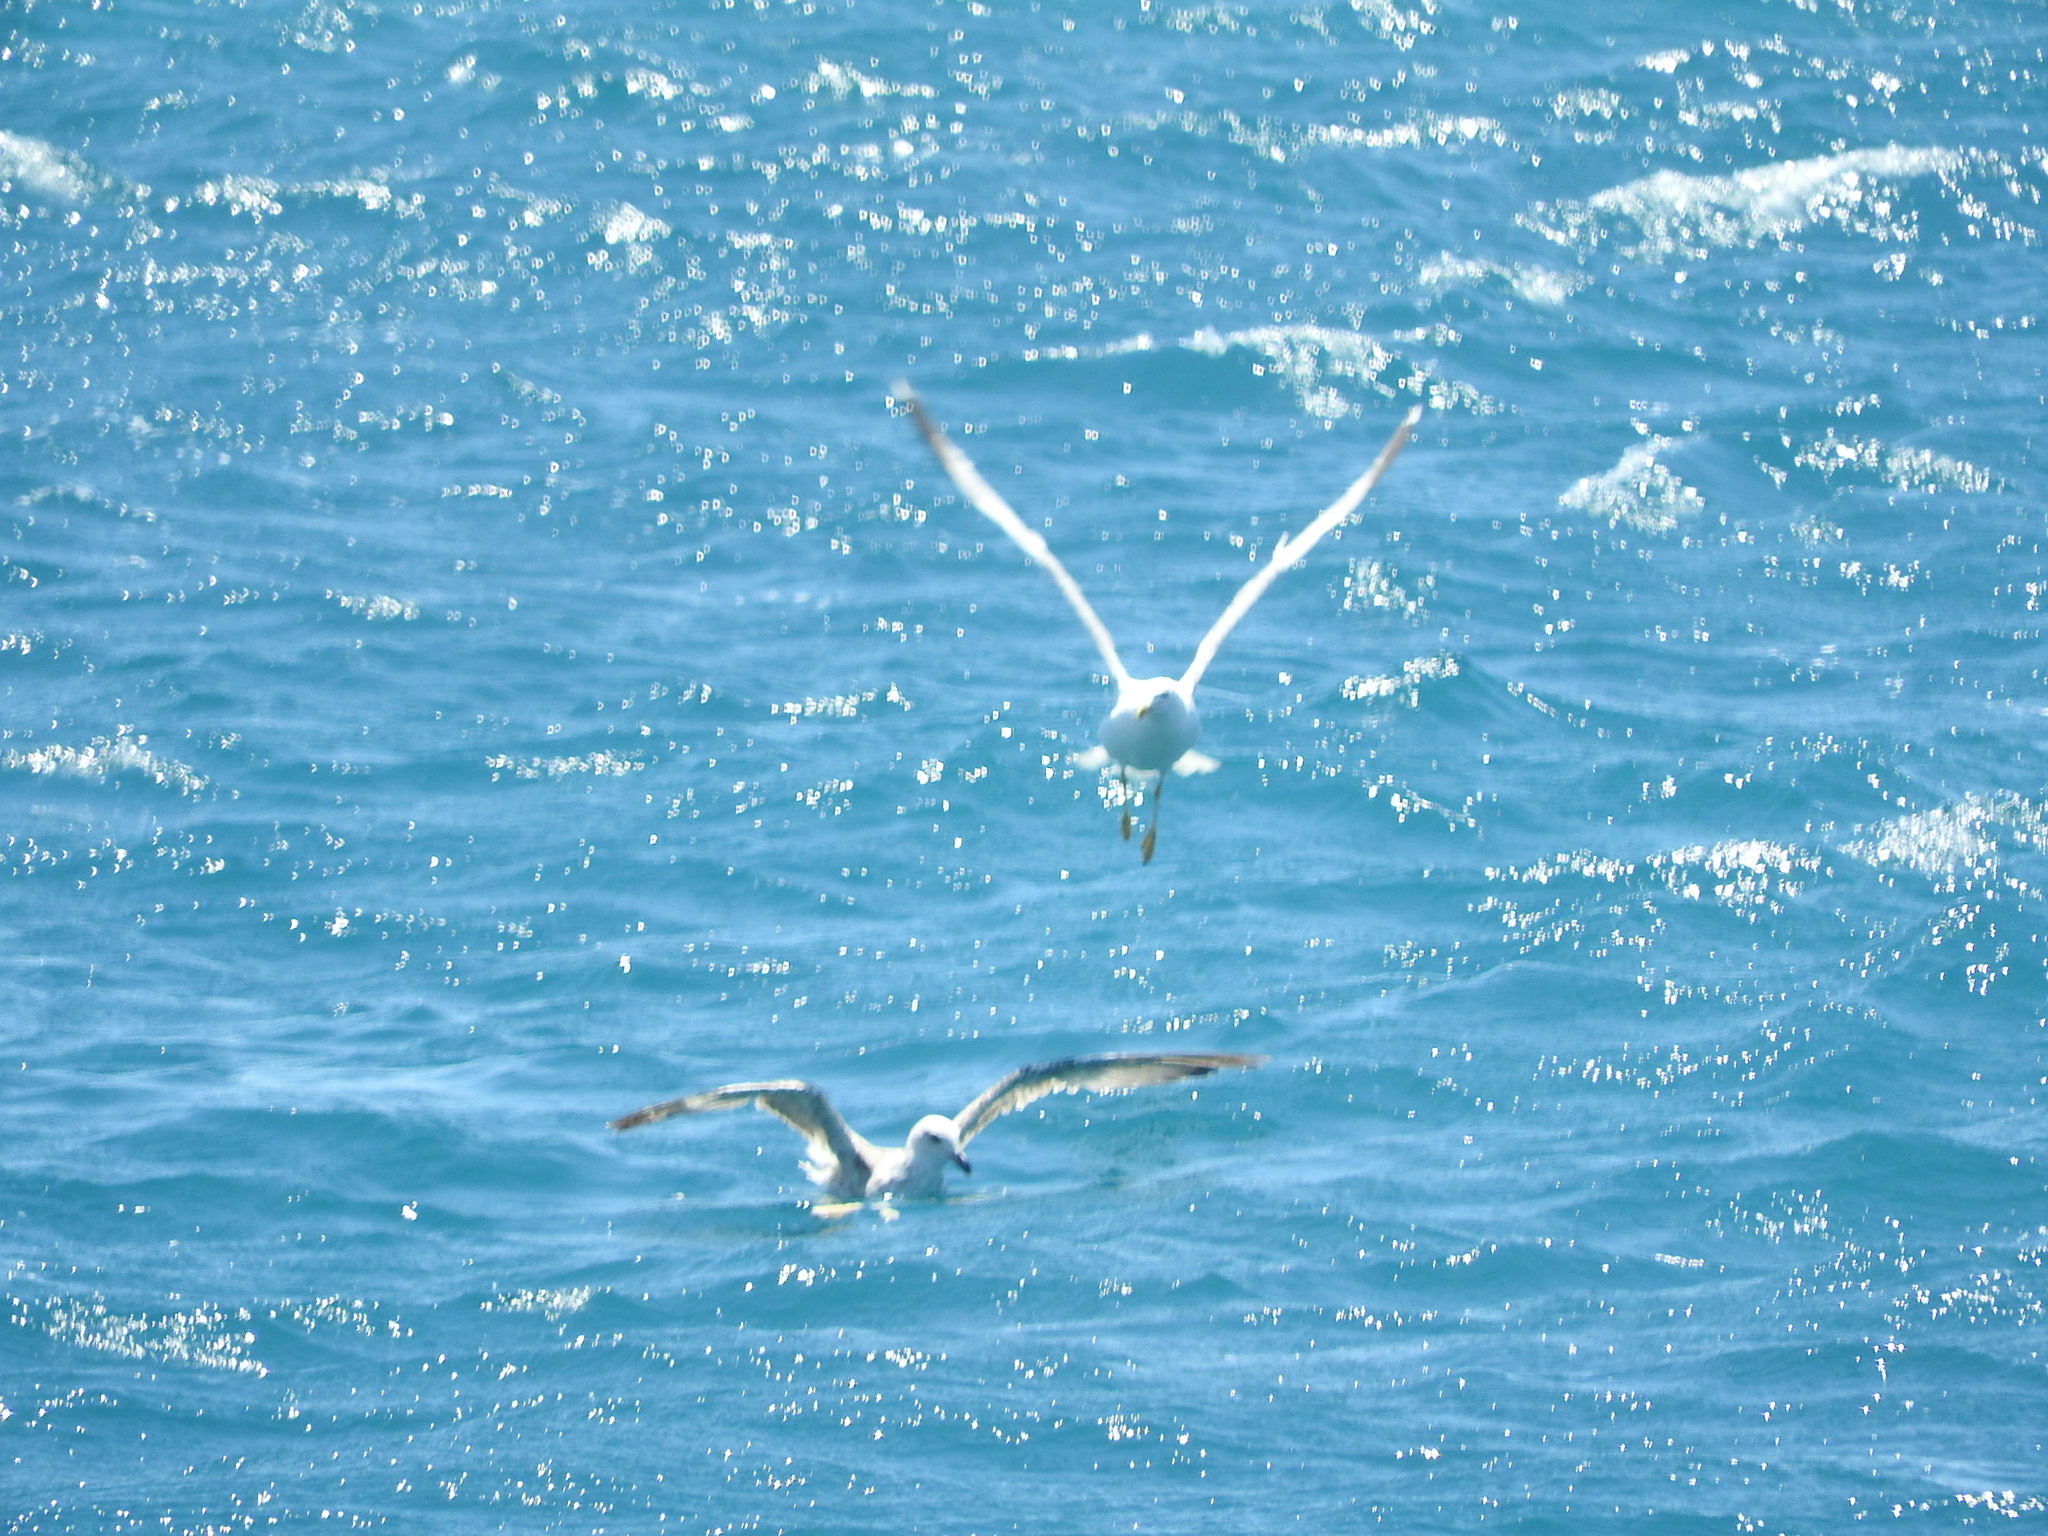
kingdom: Animalia
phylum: Chordata
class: Aves
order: Charadriiformes
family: Laridae
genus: Larus
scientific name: Larus michahellis
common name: Yellow-legged gull
